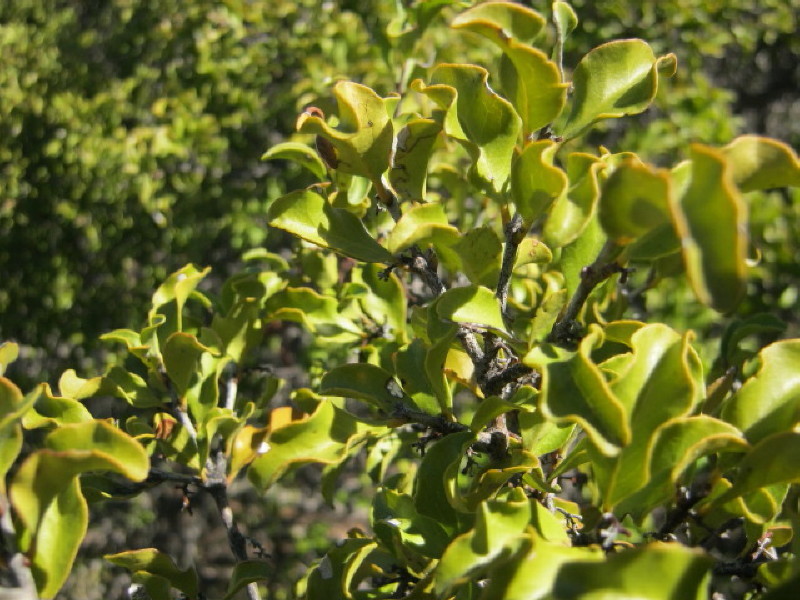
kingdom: Plantae
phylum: Tracheophyta
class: Magnoliopsida
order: Ericales
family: Ebenaceae
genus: Euclea
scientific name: Euclea undulata
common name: Small-leaved guarri
